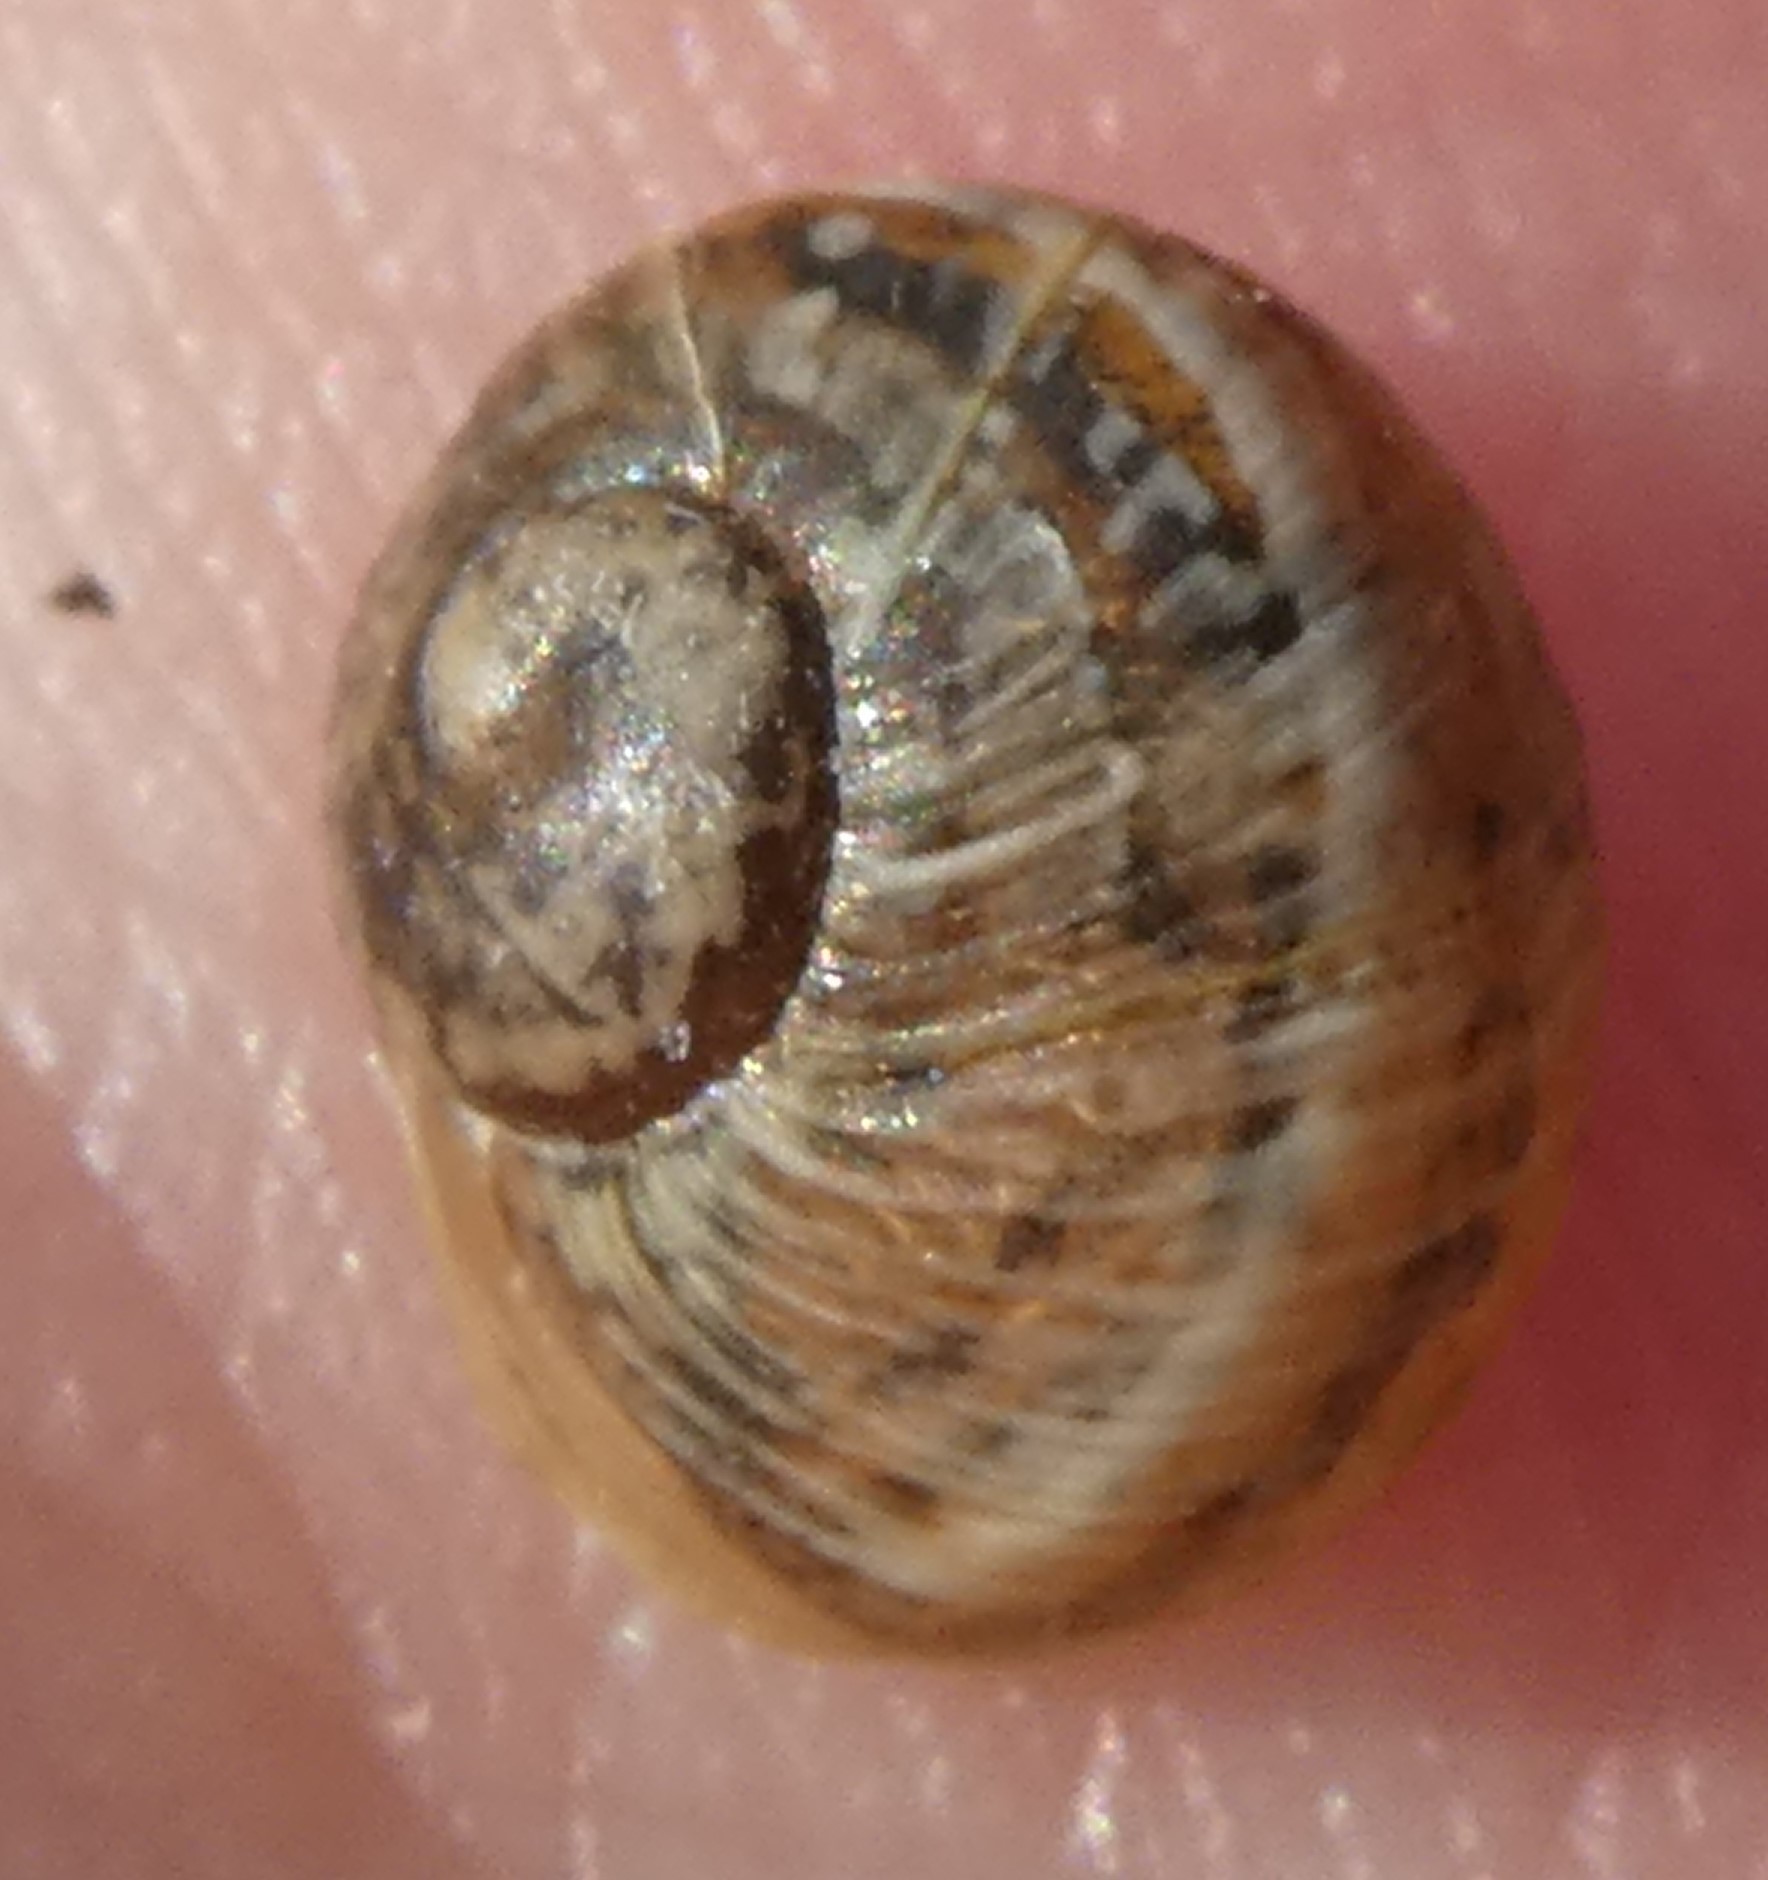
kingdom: Animalia
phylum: Mollusca
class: Gastropoda
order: Stylommatophora
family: Helicidae
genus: Cornu
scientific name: Cornu aspersum
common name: Brown garden snail
